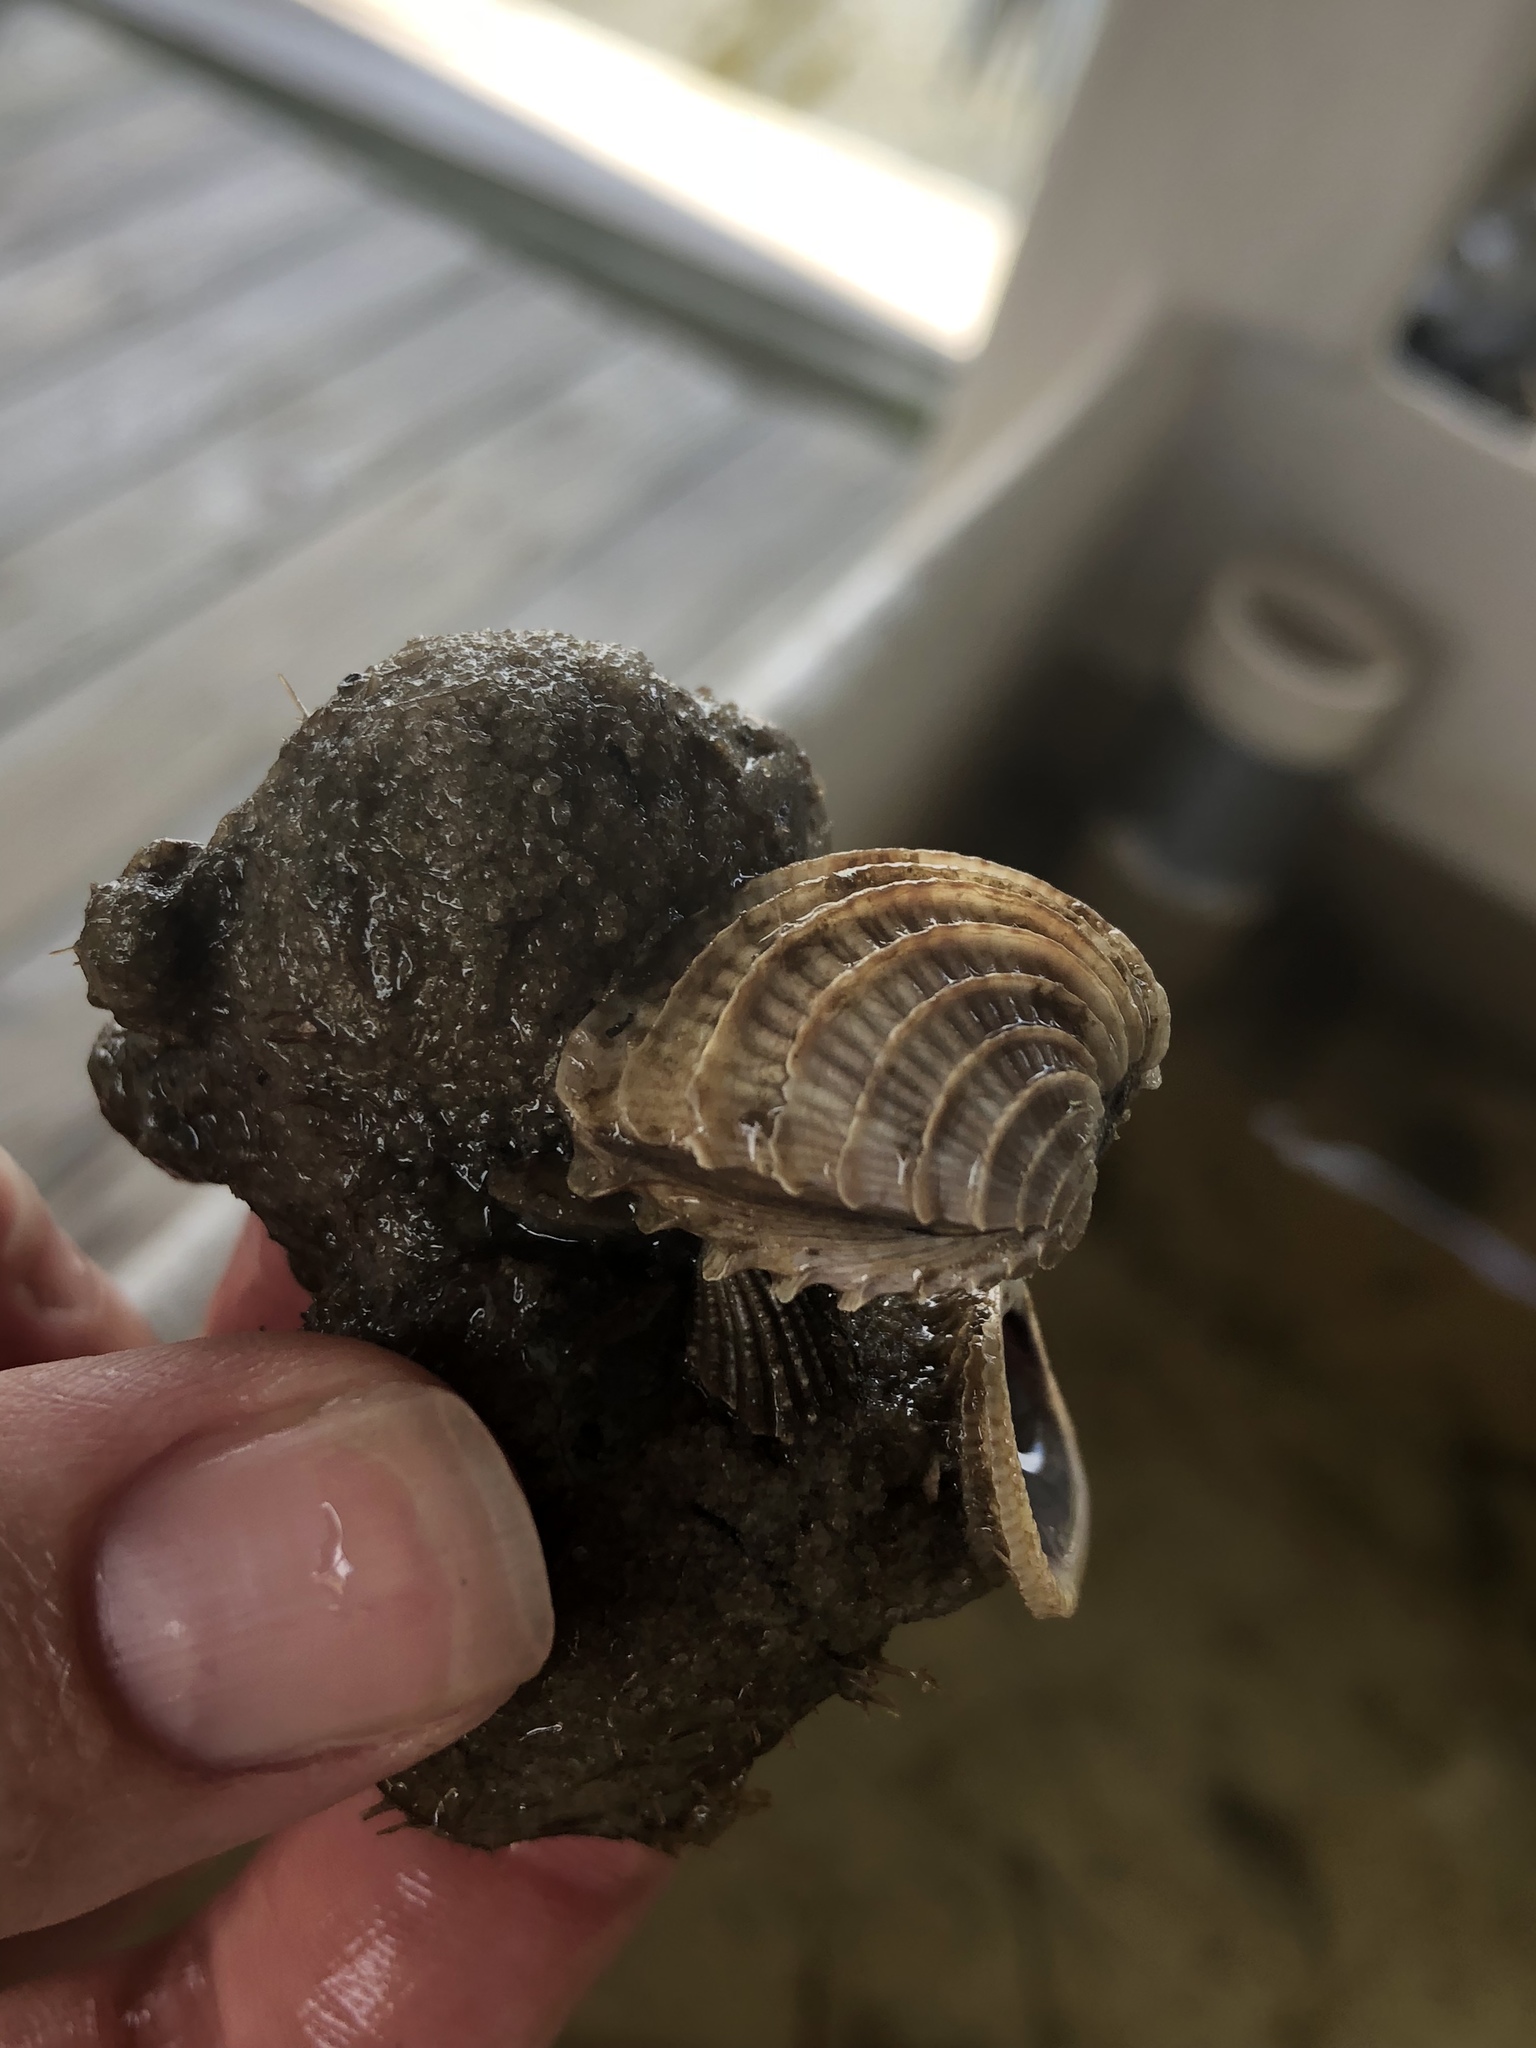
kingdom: Animalia
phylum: Mollusca
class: Bivalvia
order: Venerida
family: Veneridae
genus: Chione
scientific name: Chione elevata
